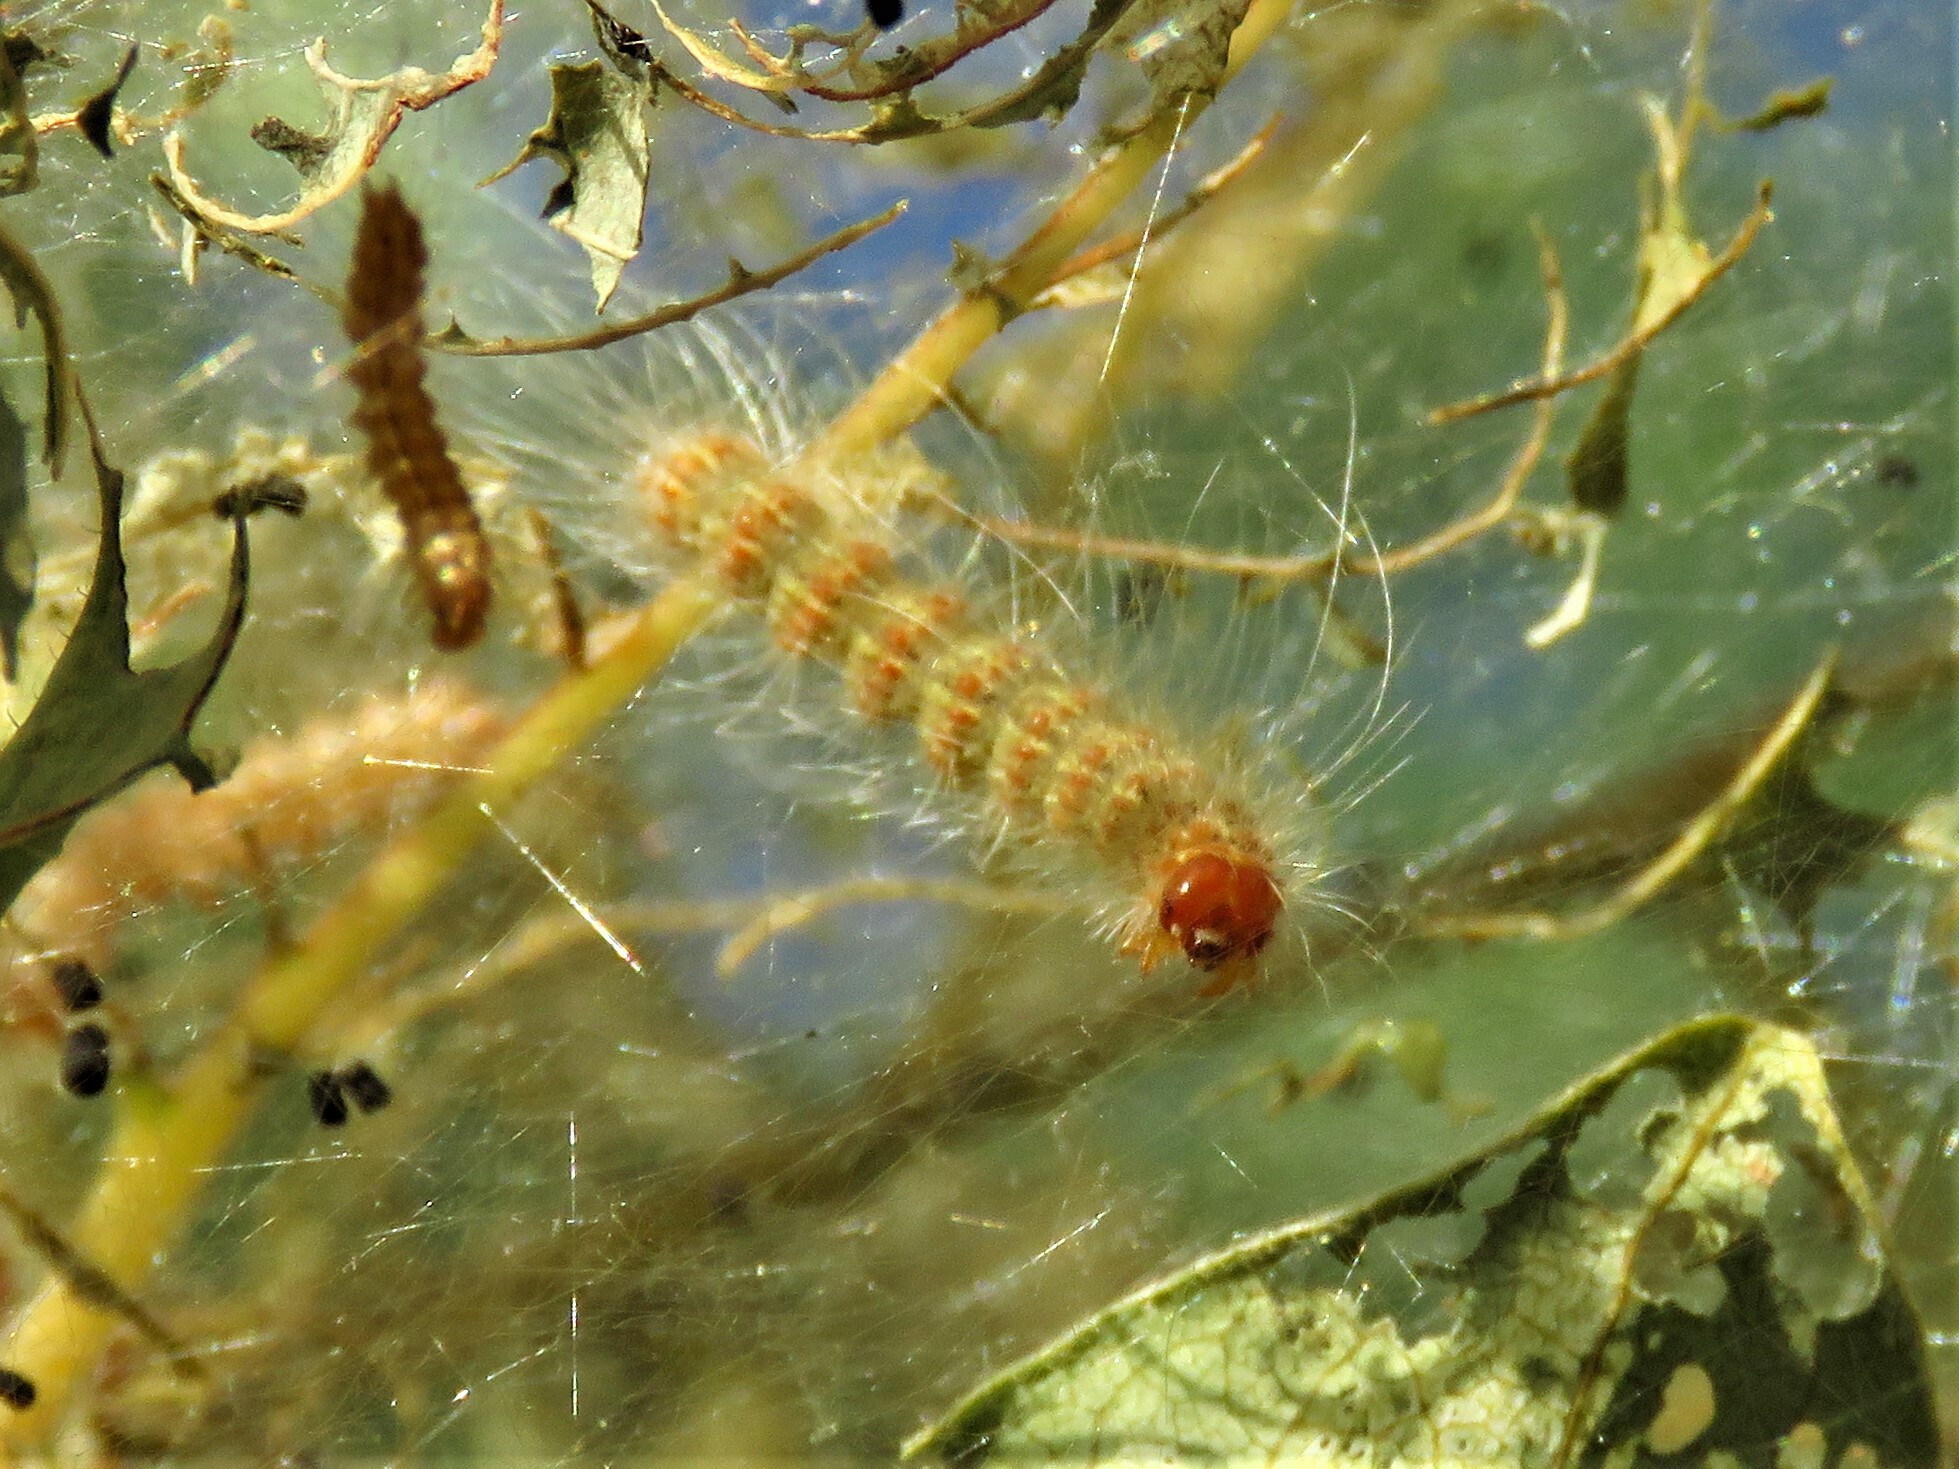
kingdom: Animalia
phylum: Arthropoda
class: Insecta
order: Lepidoptera
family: Erebidae
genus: Hyphantria
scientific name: Hyphantria cunea
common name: American white moth
